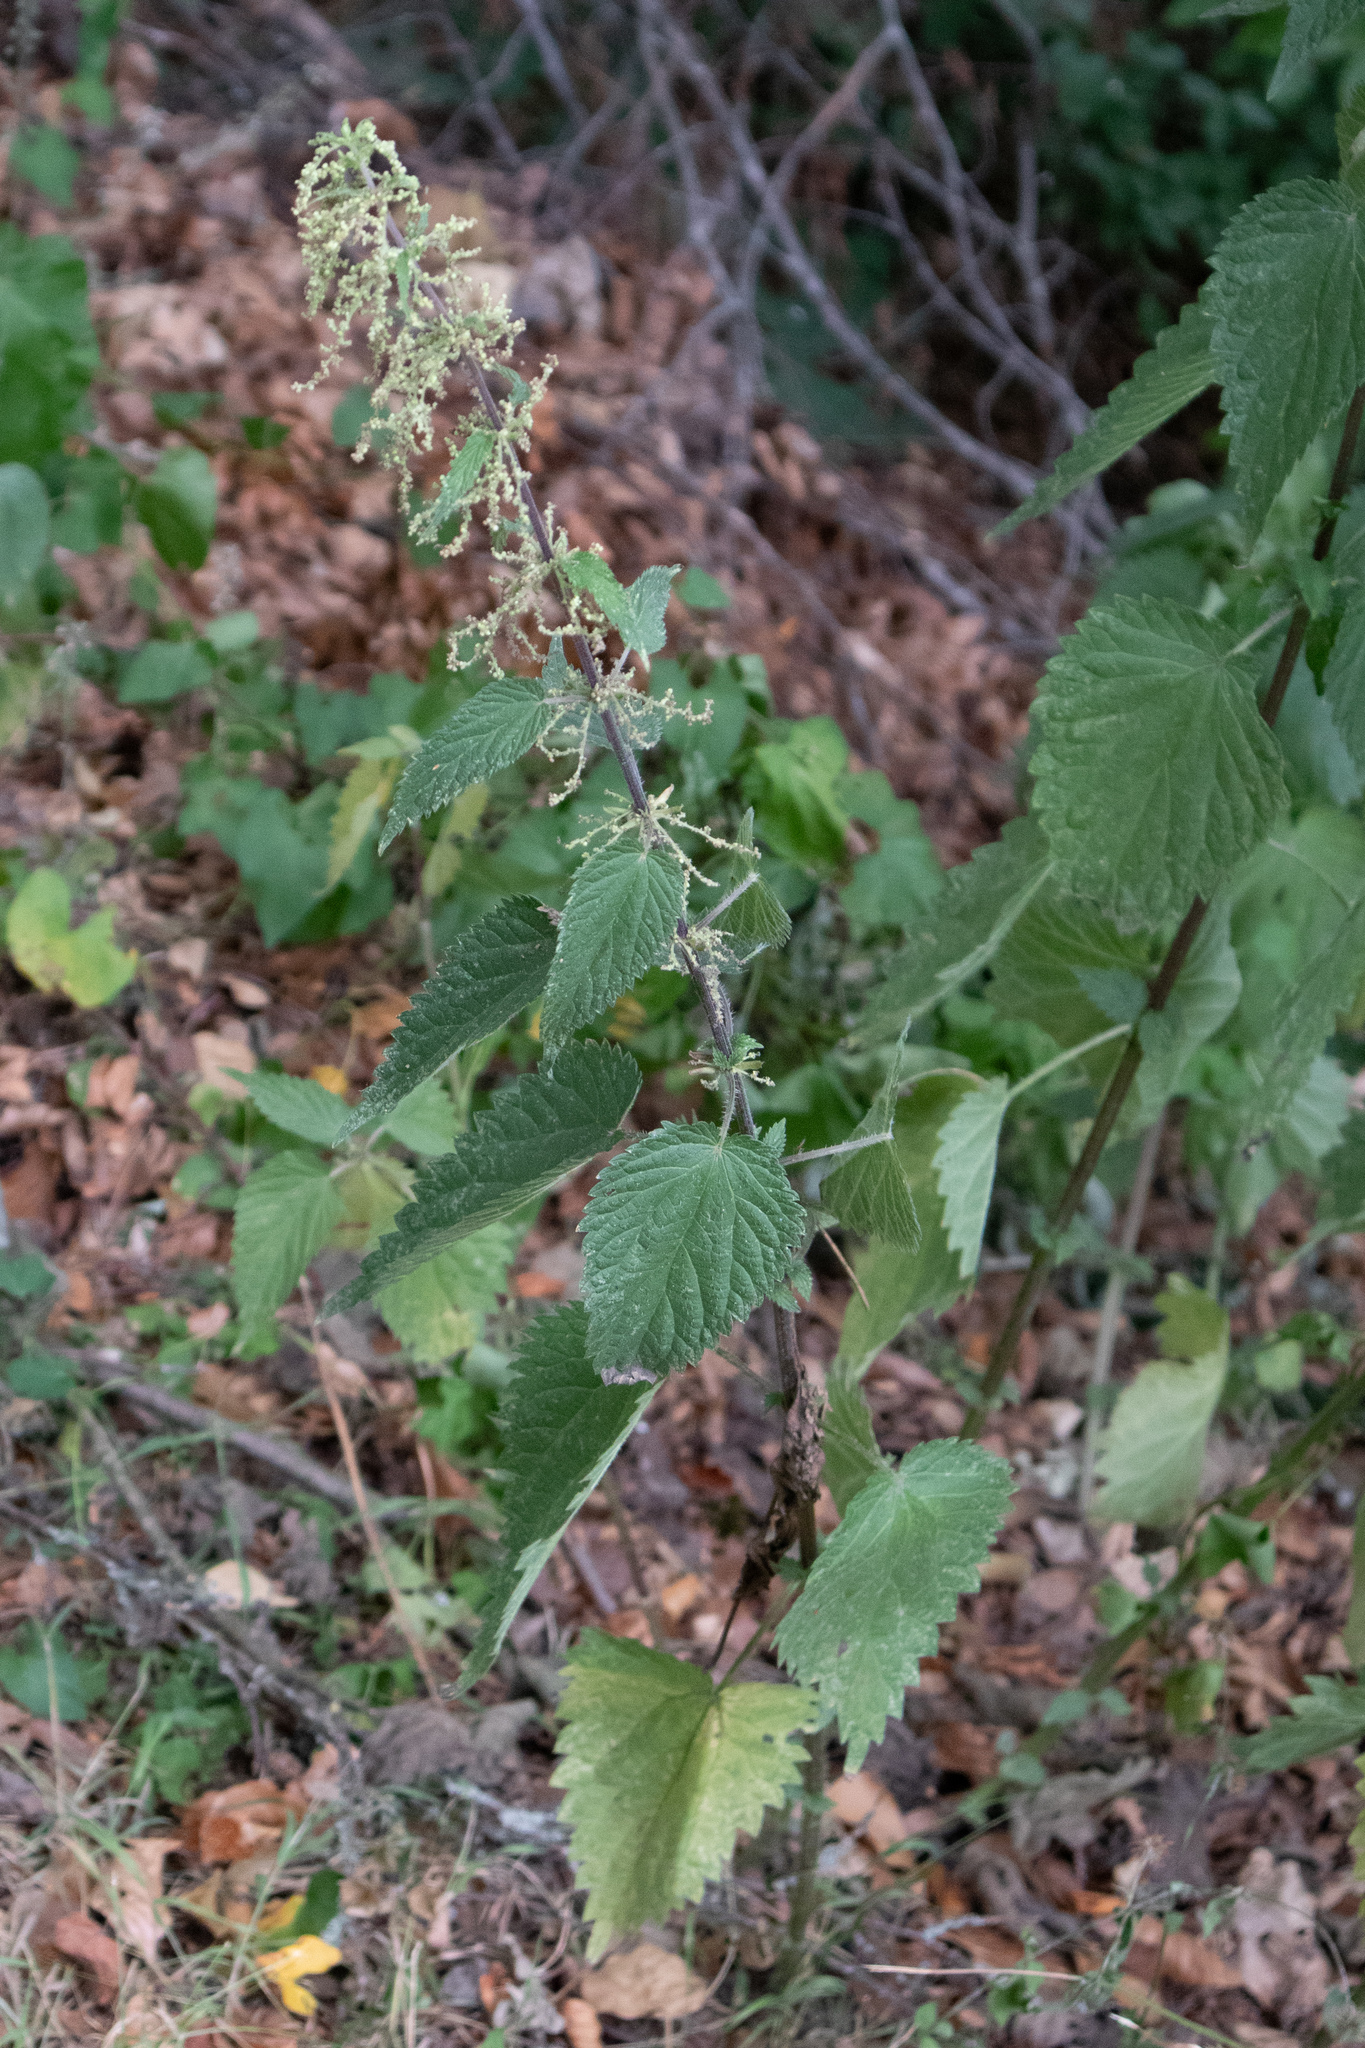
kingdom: Plantae
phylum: Tracheophyta
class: Magnoliopsida
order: Rosales
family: Urticaceae
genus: Urtica
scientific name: Urtica dioica
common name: Common nettle
